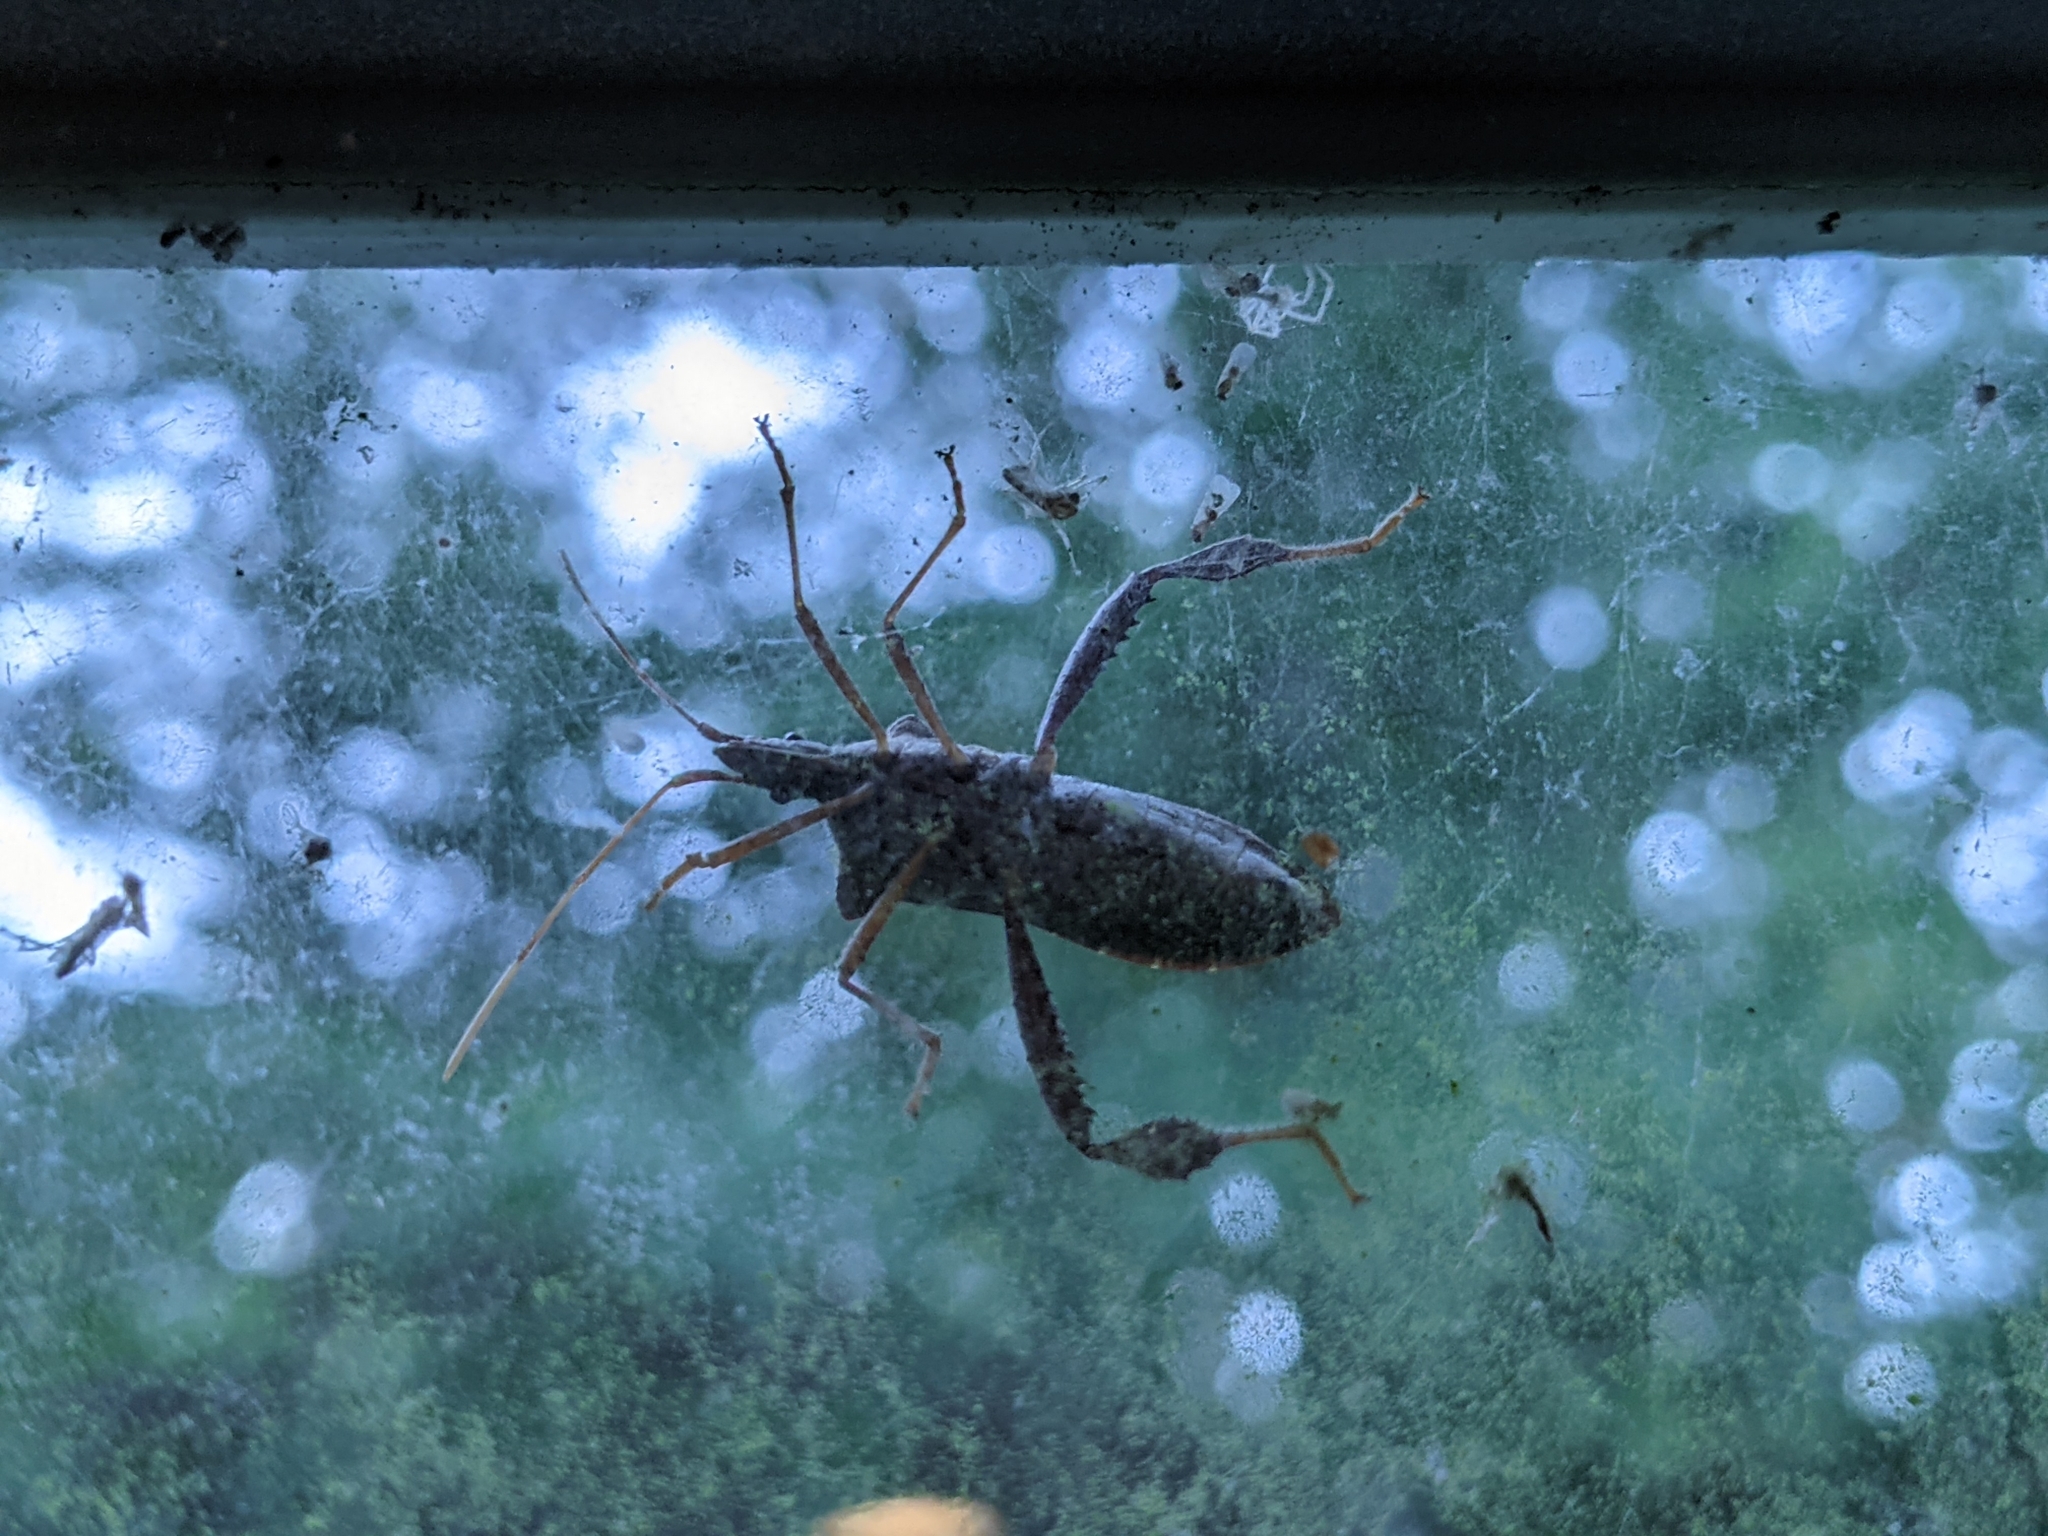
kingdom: Animalia
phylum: Arthropoda
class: Insecta
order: Hemiptera
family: Coreidae
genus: Leptoglossus
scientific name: Leptoglossus fulvicornis
